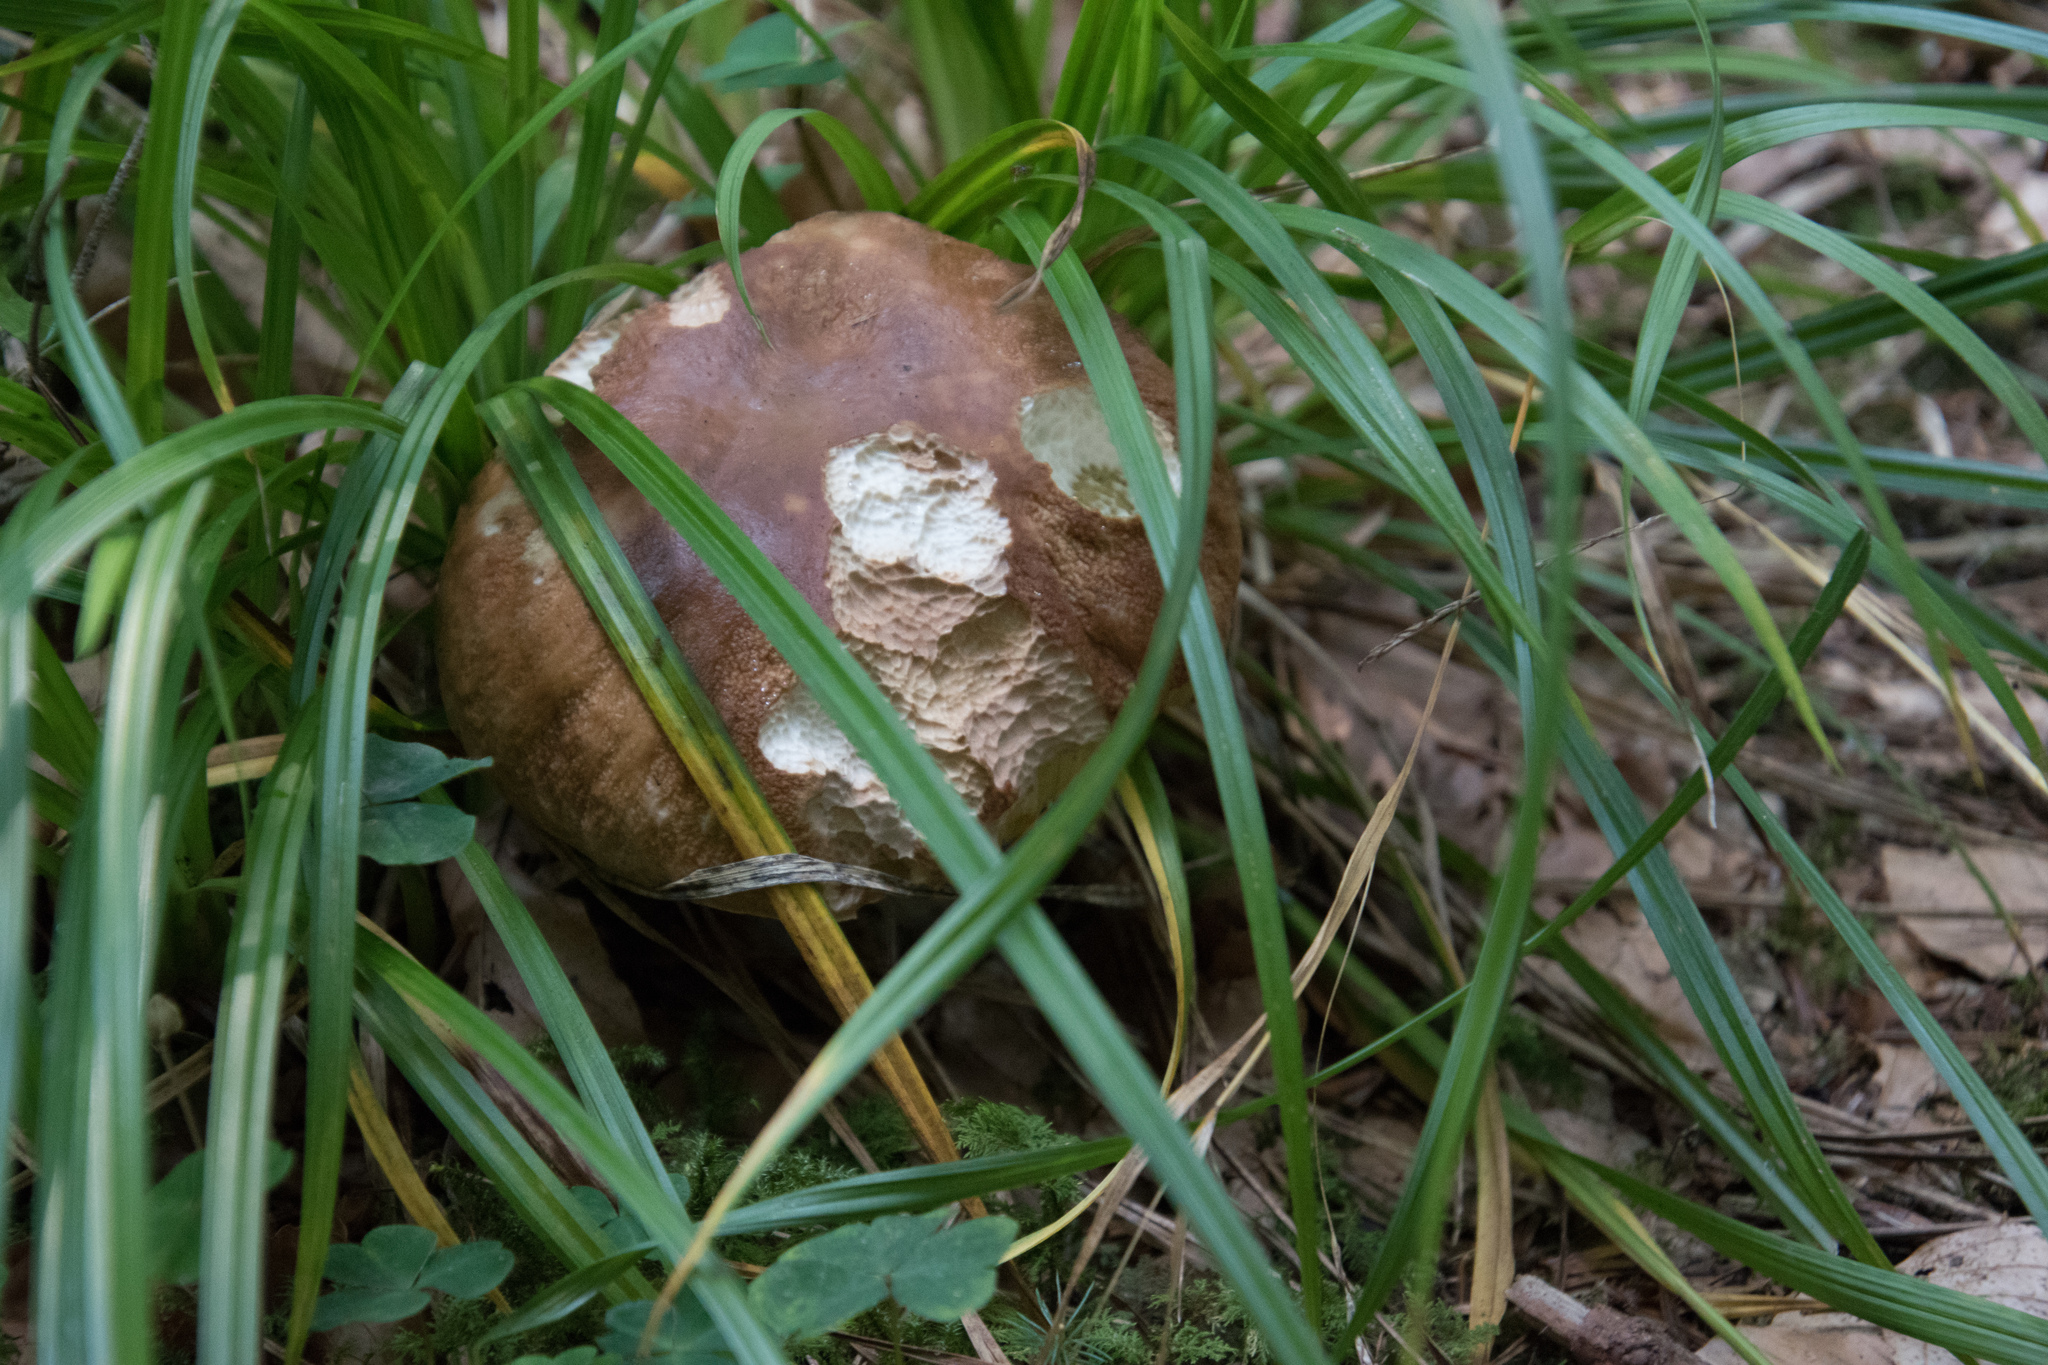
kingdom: Fungi
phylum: Basidiomycota
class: Agaricomycetes
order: Boletales
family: Boletaceae
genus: Boletus
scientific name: Boletus reticulatus
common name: Summer bolete
